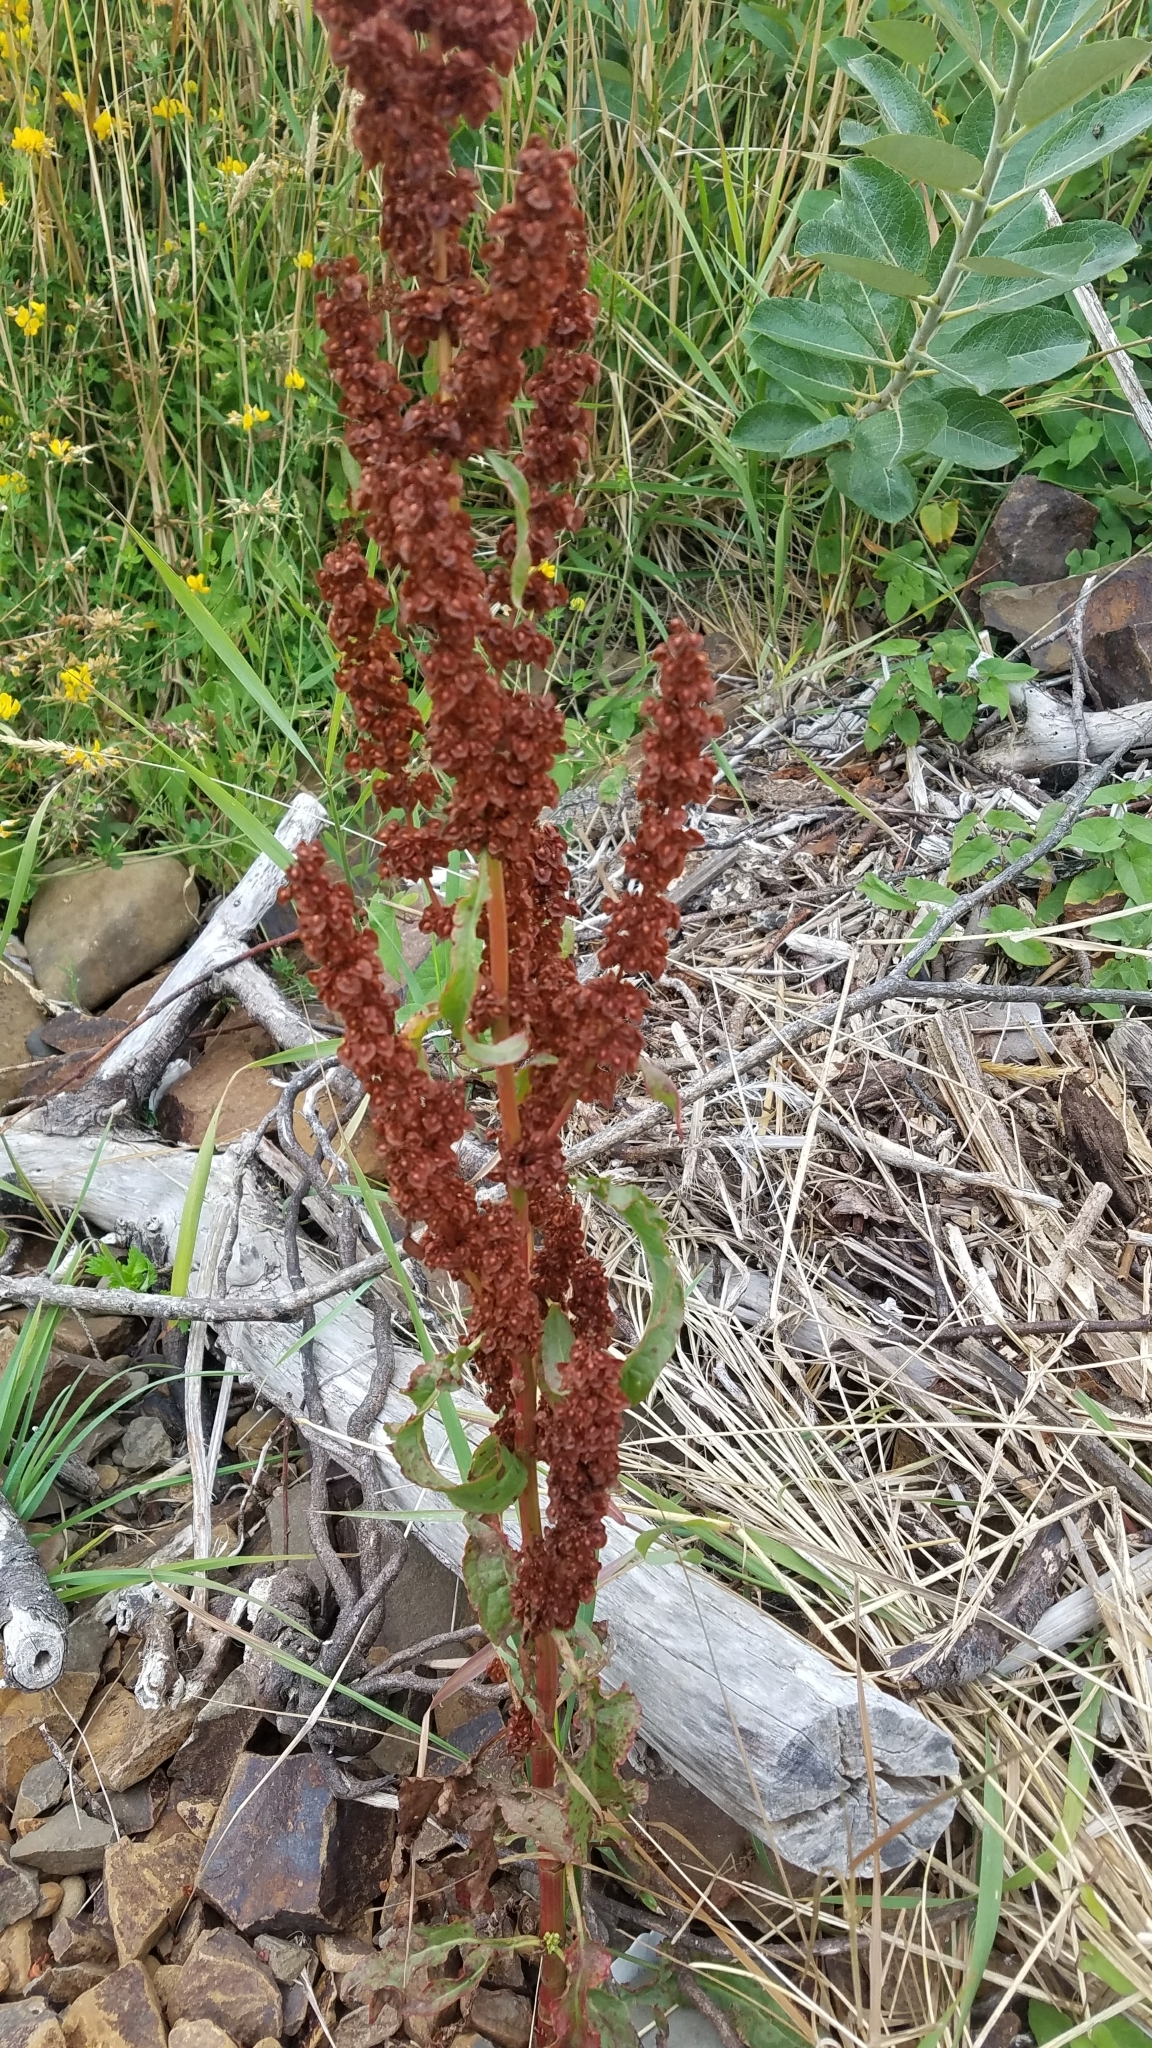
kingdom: Plantae
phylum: Tracheophyta
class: Magnoliopsida
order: Caryophyllales
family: Polygonaceae
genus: Rumex
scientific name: Rumex crispus
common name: Curled dock
